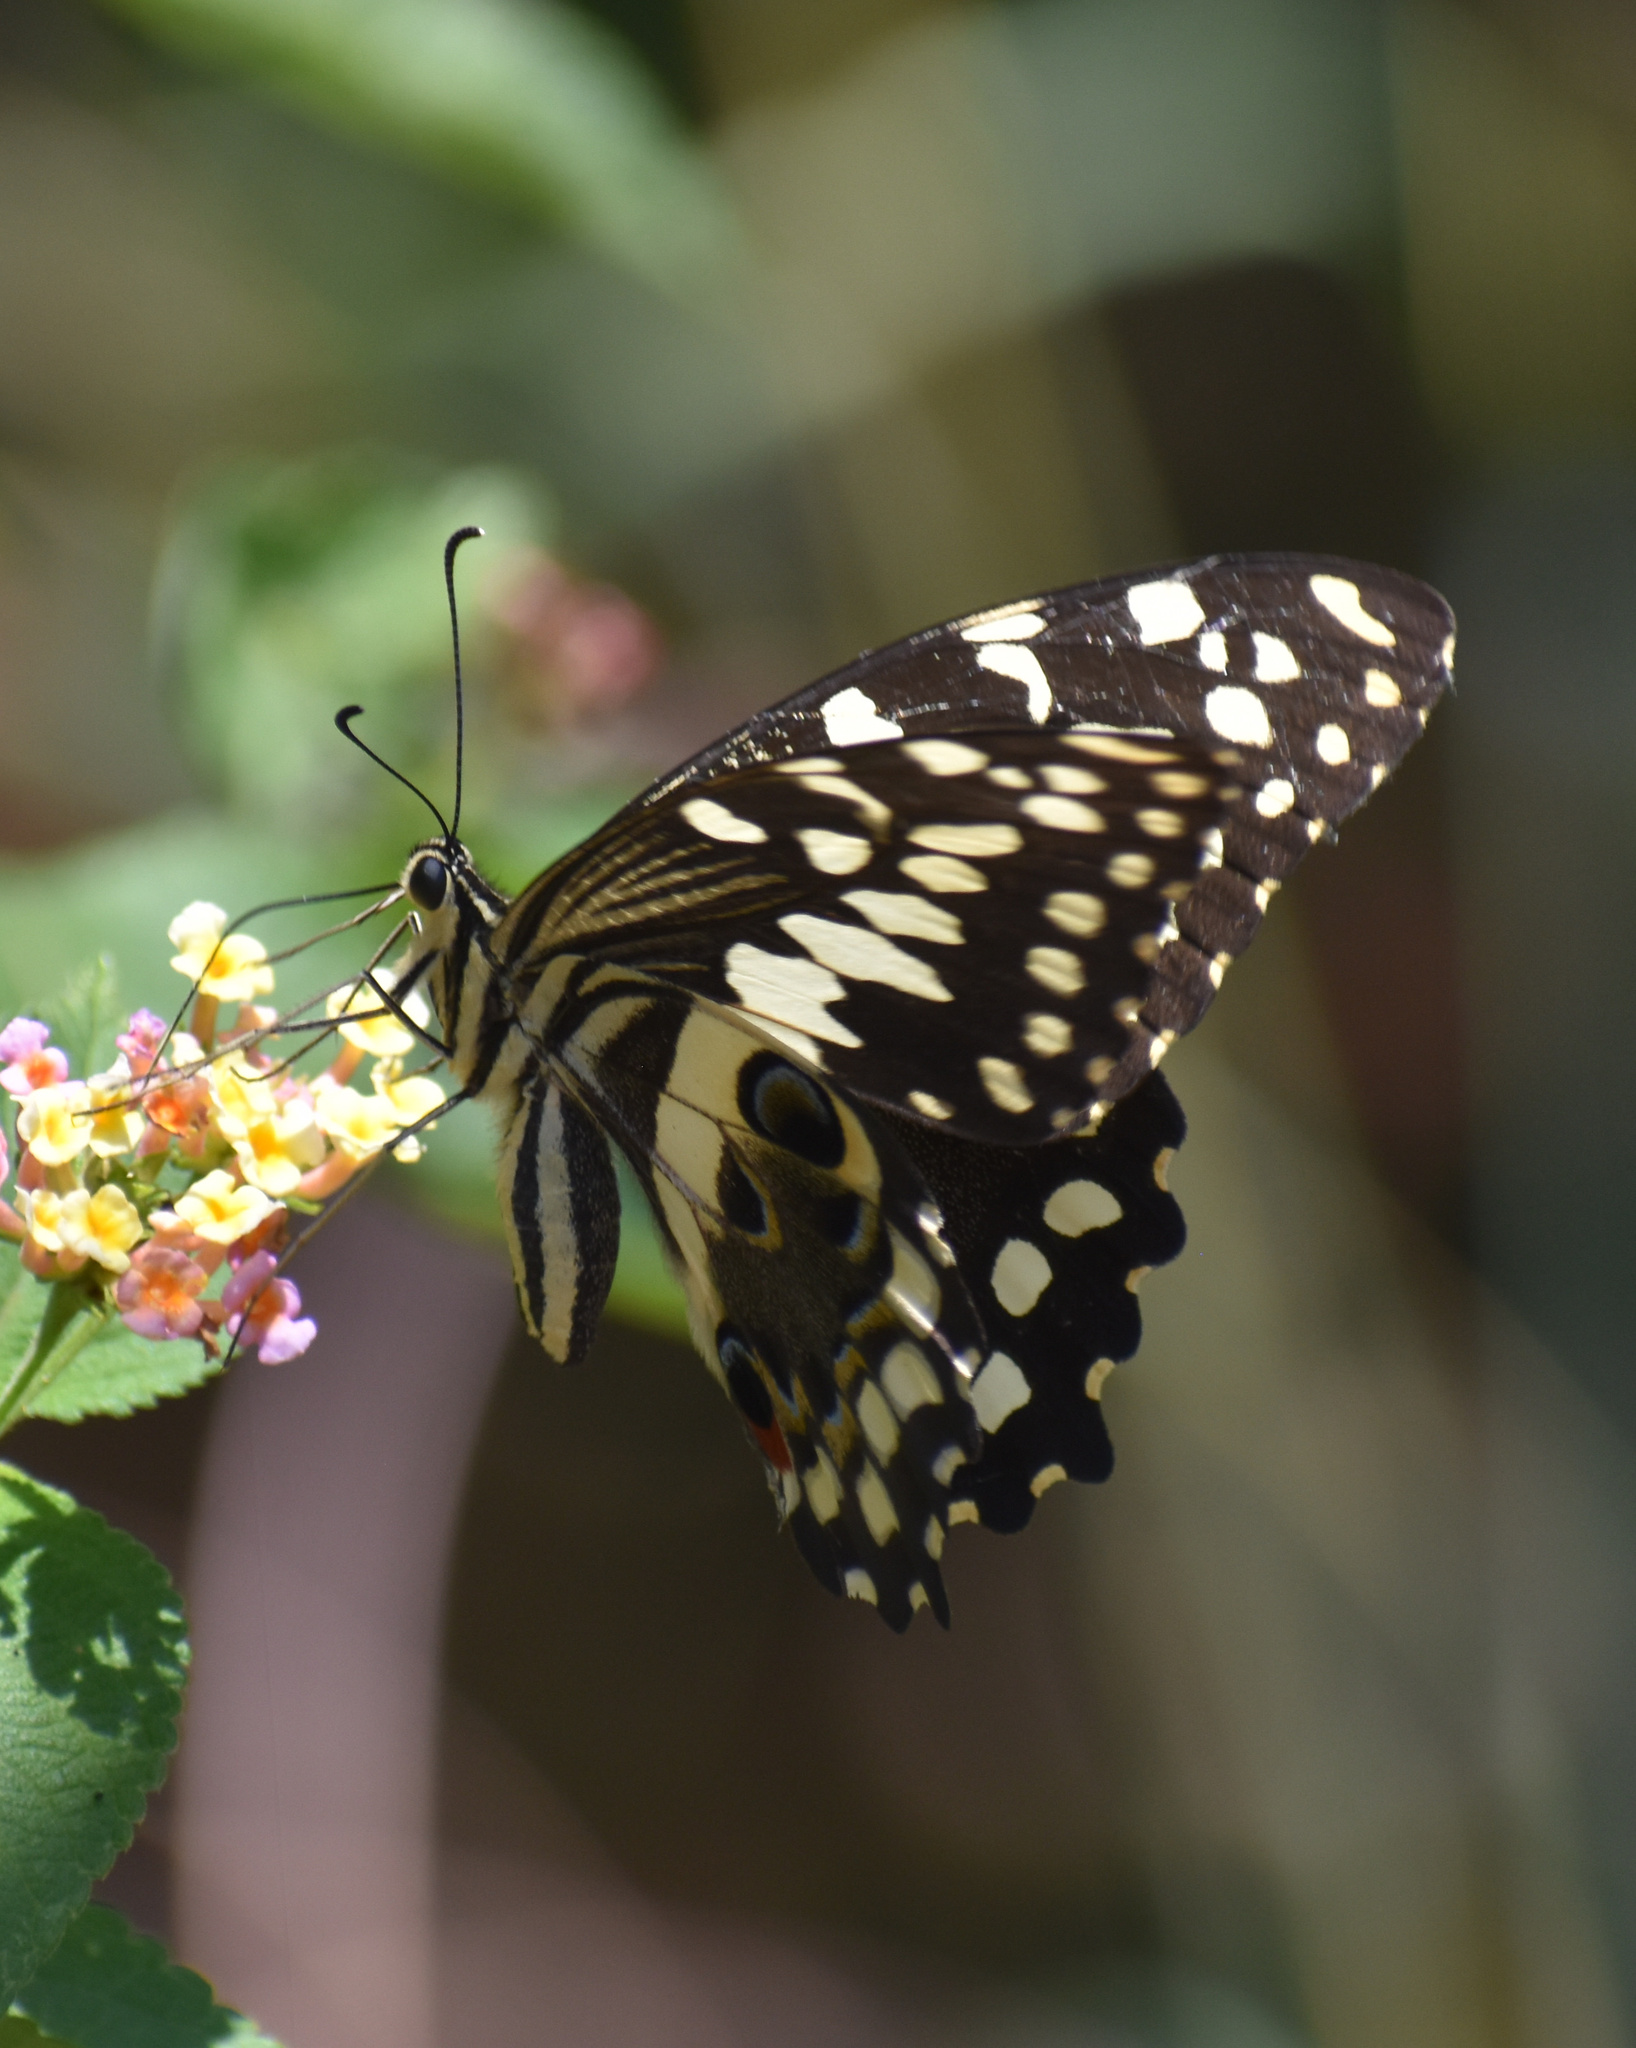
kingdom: Animalia
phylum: Arthropoda
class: Insecta
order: Lepidoptera
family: Papilionidae
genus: Papilio
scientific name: Papilio demodocus
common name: Christmas butterfly
